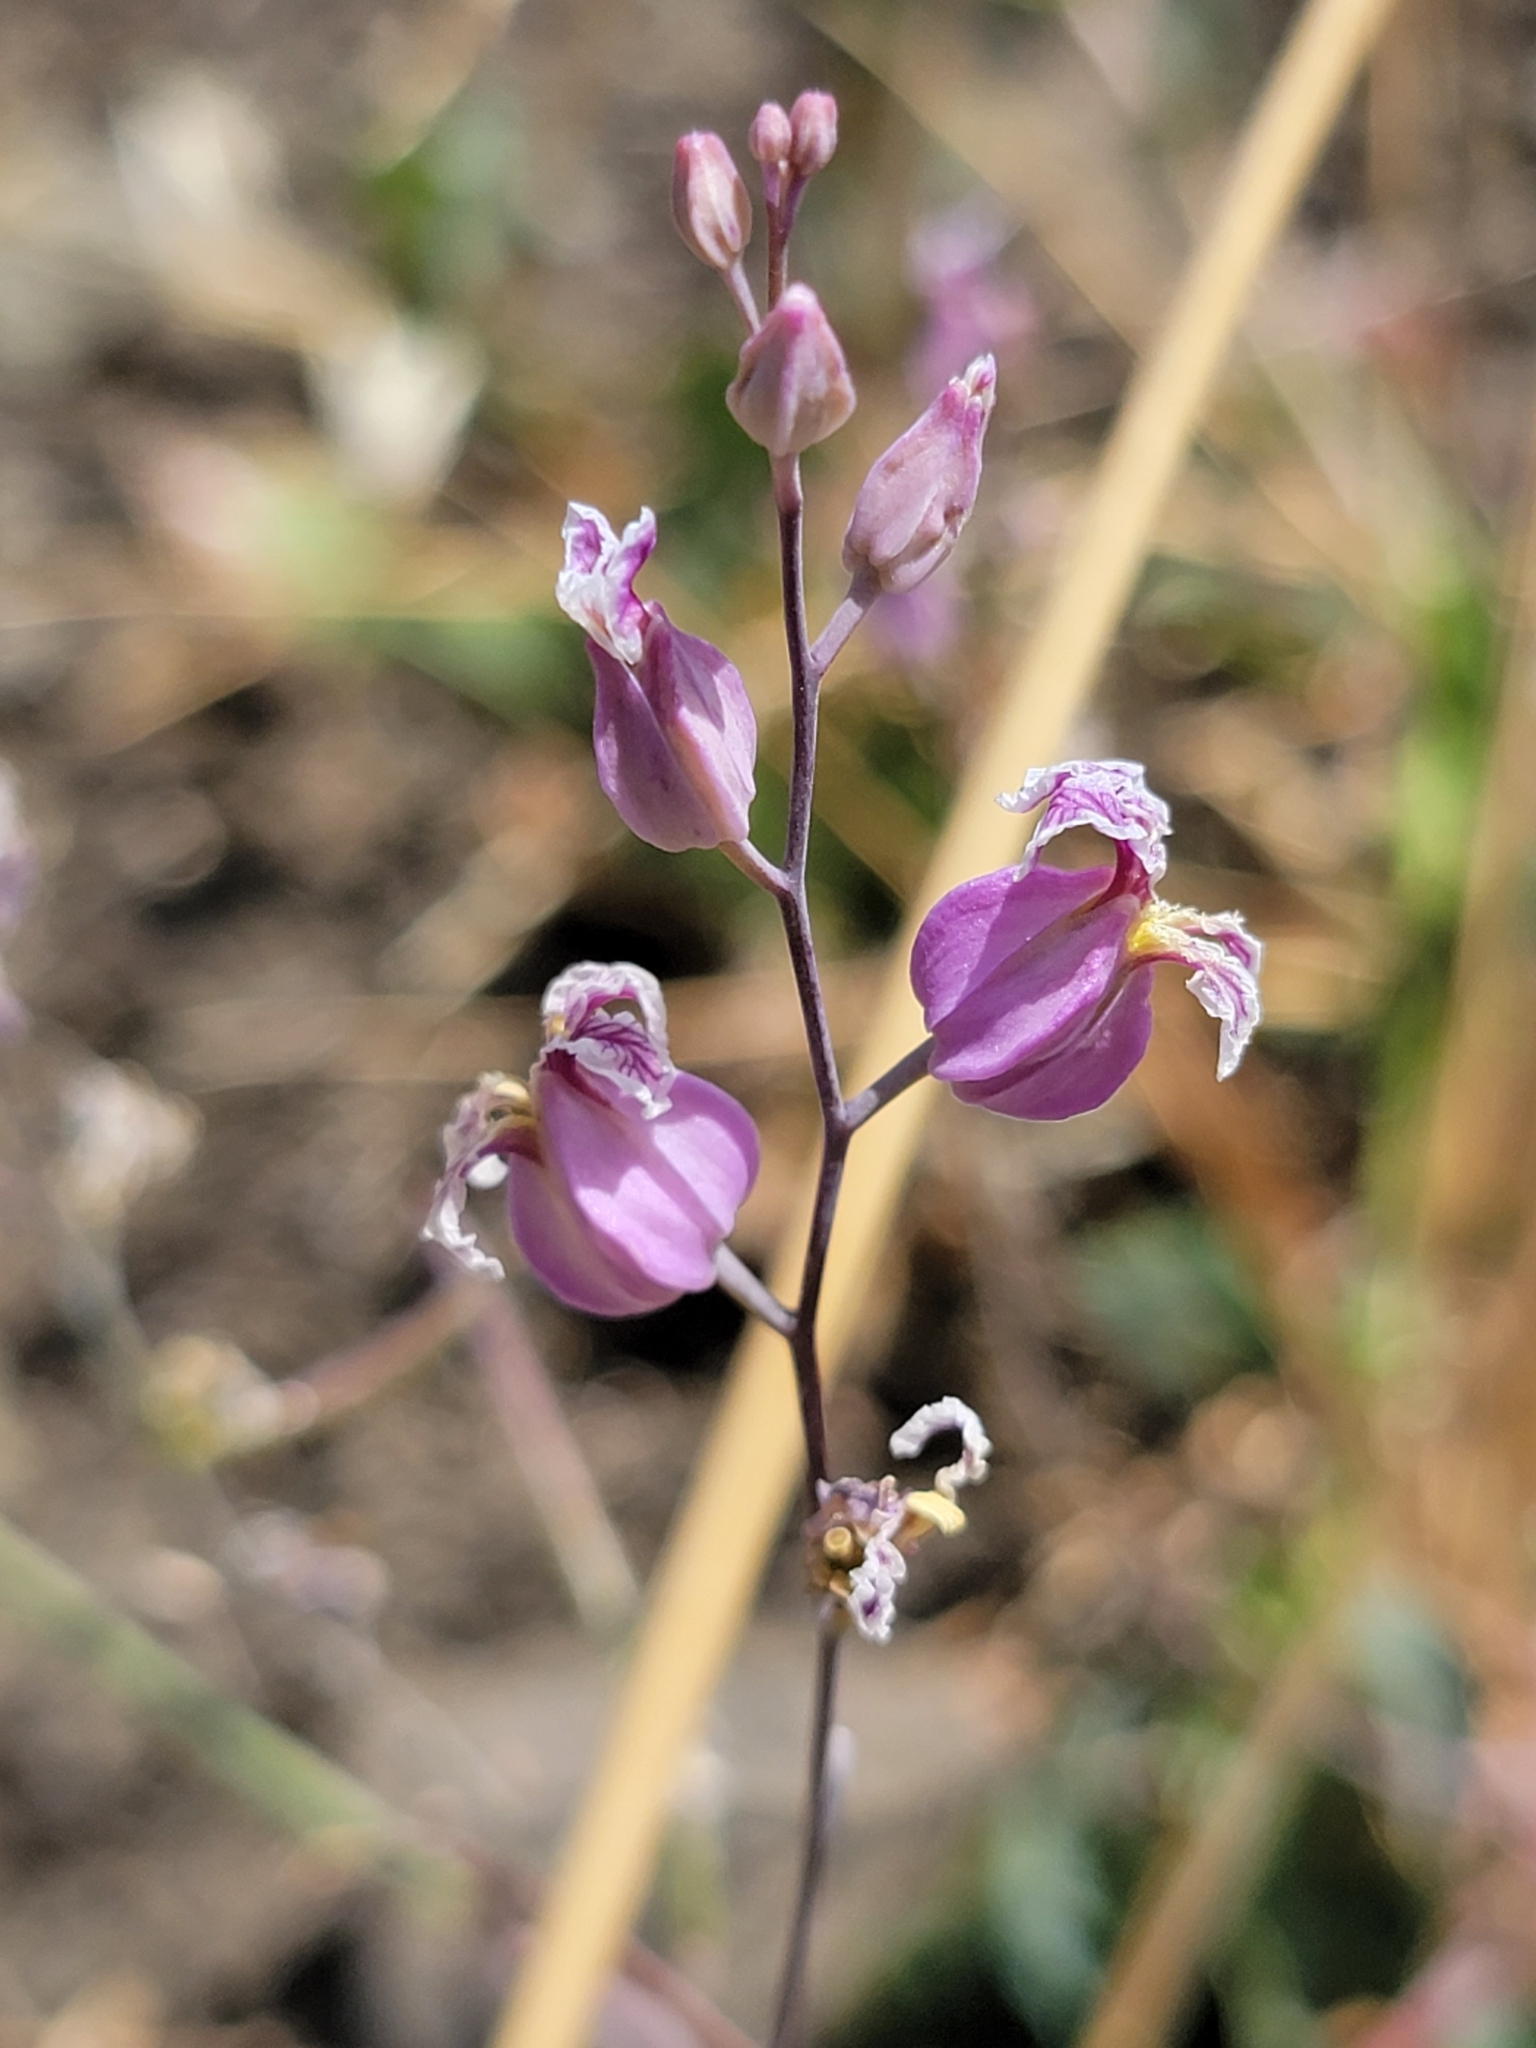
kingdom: Plantae
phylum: Tracheophyta
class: Magnoliopsida
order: Brassicales
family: Brassicaceae
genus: Streptanthus
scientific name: Streptanthus glandulosus
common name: Jewel-flower
